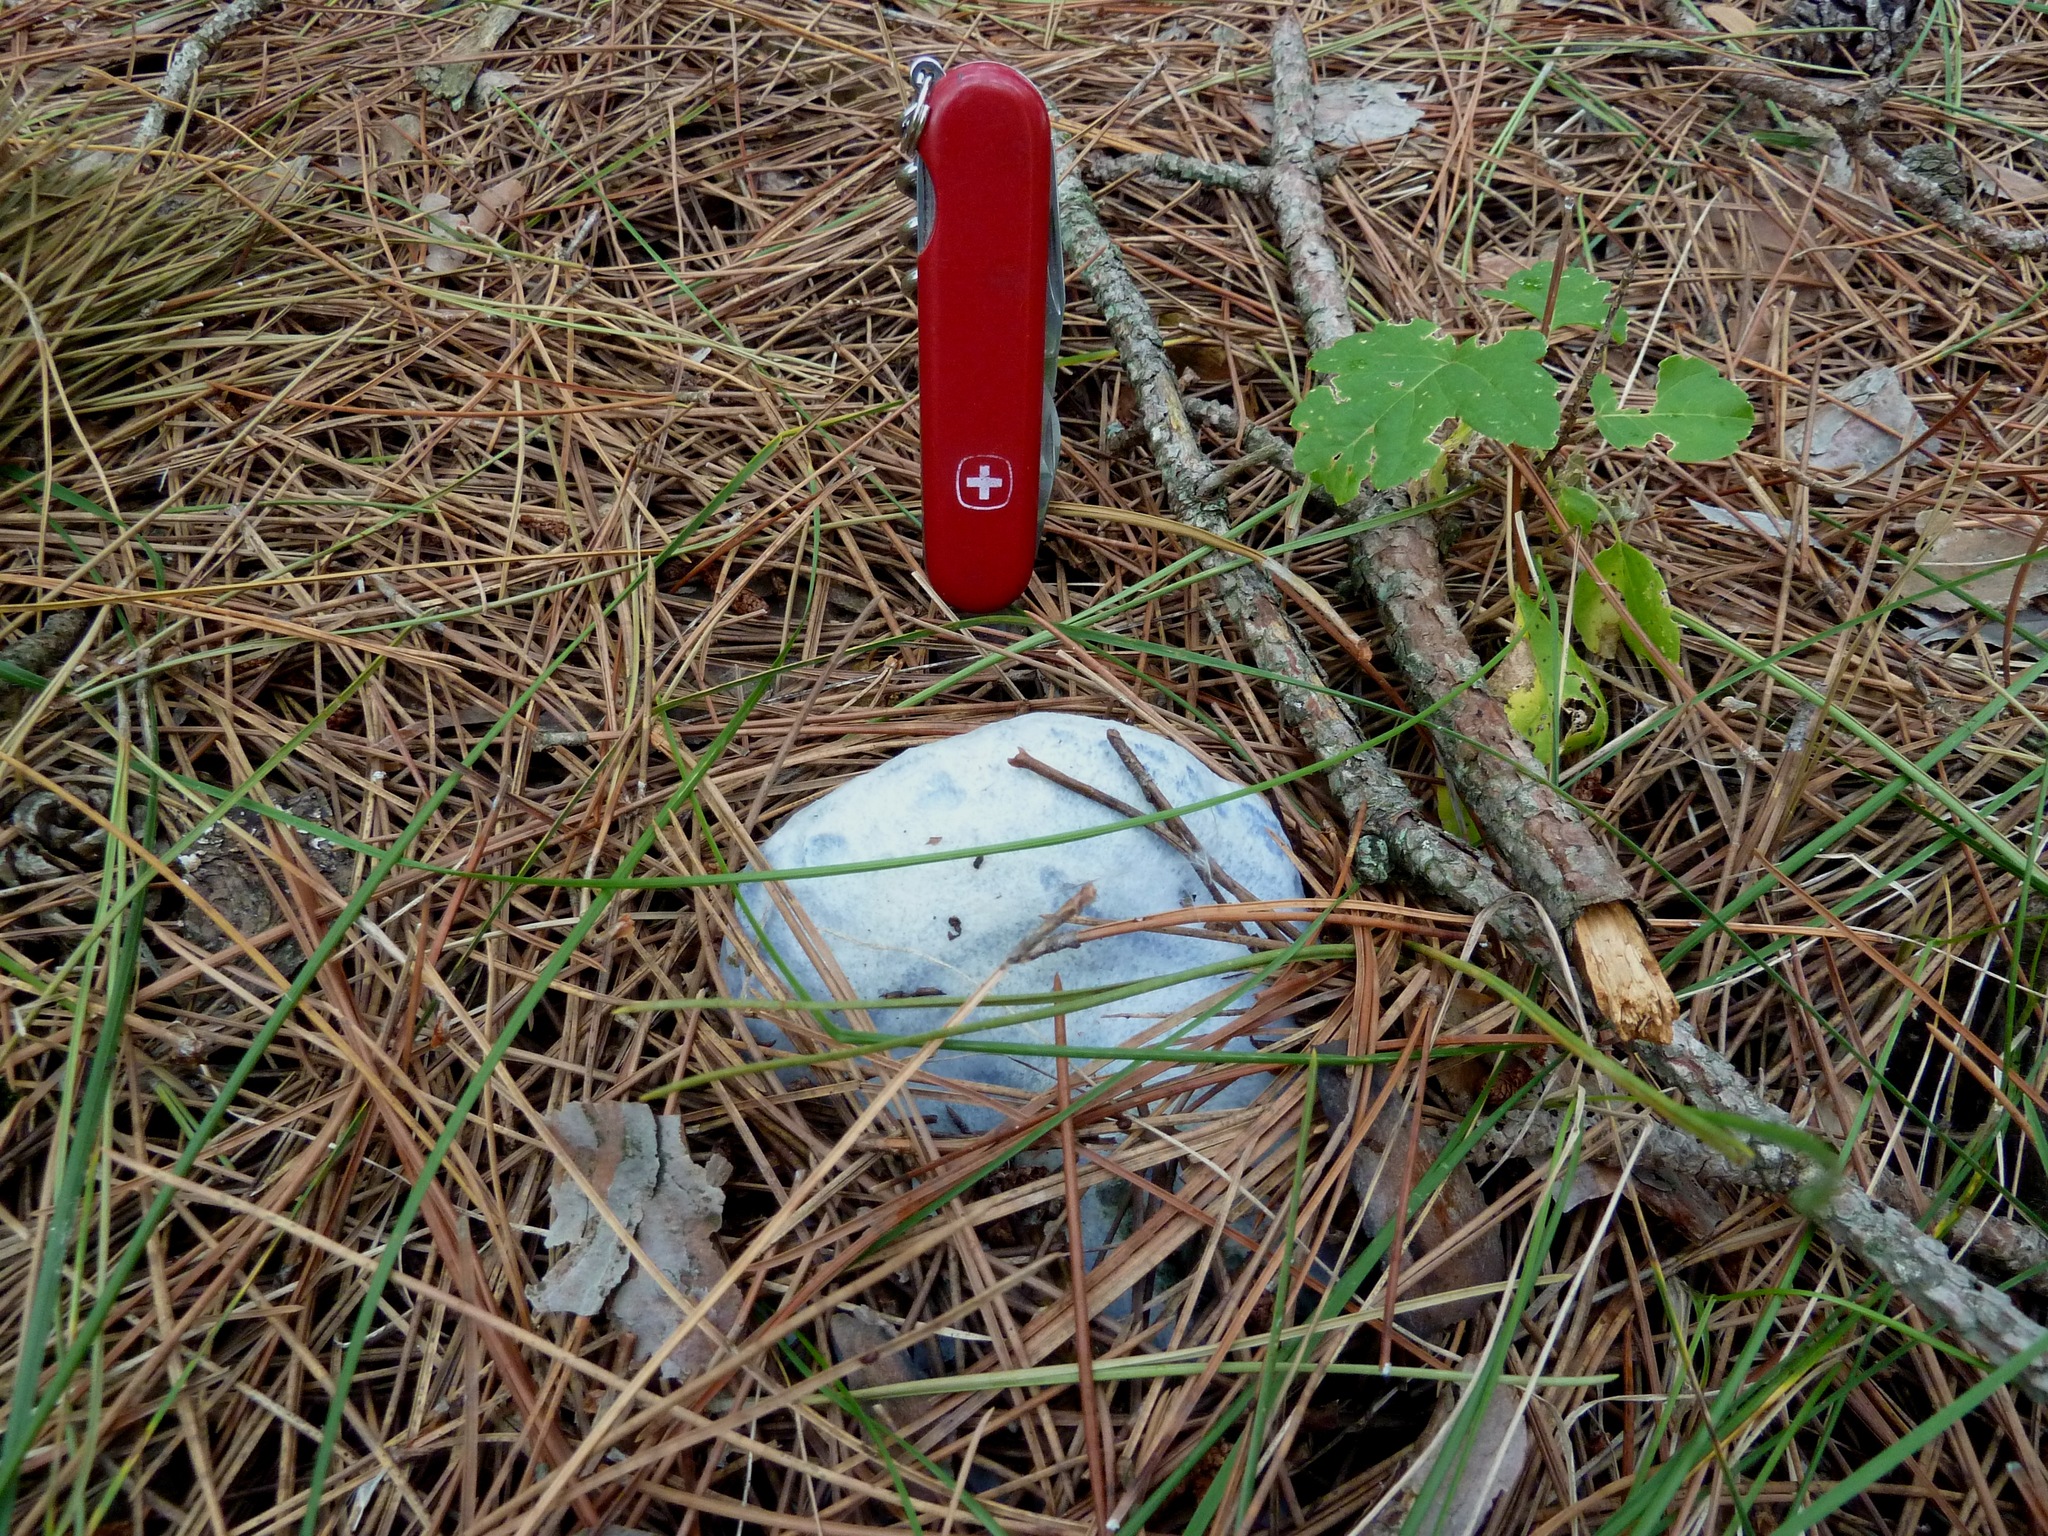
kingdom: Fungi
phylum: Basidiomycota
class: Agaricomycetes
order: Russulales
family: Russulaceae
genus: Lactarius
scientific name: Lactarius indigo
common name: Indigo milk cap
